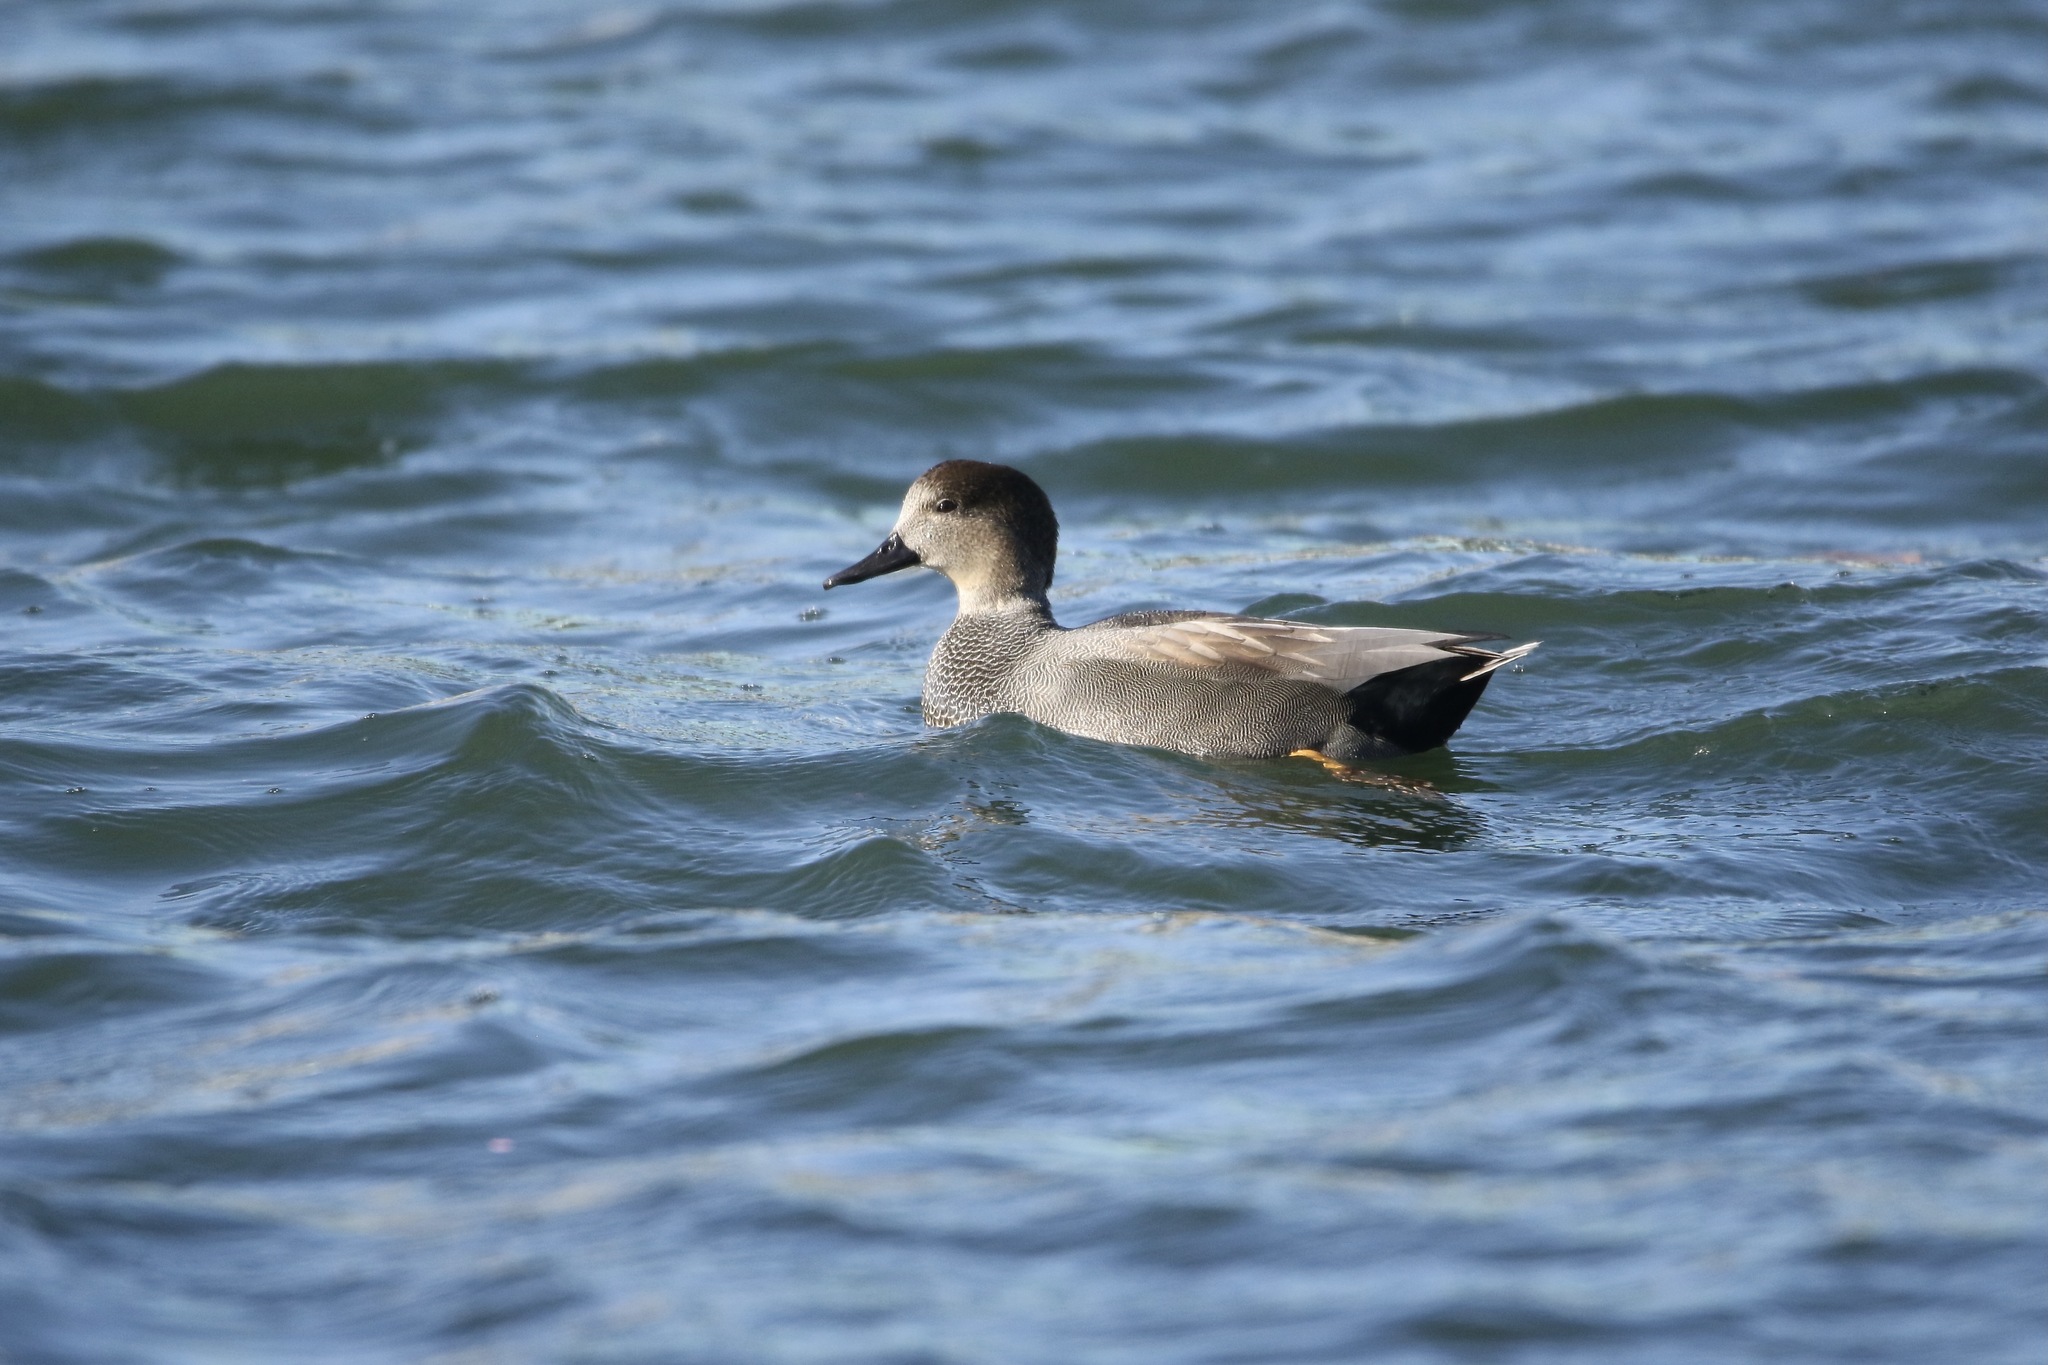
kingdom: Animalia
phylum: Chordata
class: Aves
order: Anseriformes
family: Anatidae
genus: Mareca
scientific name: Mareca strepera
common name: Gadwall
